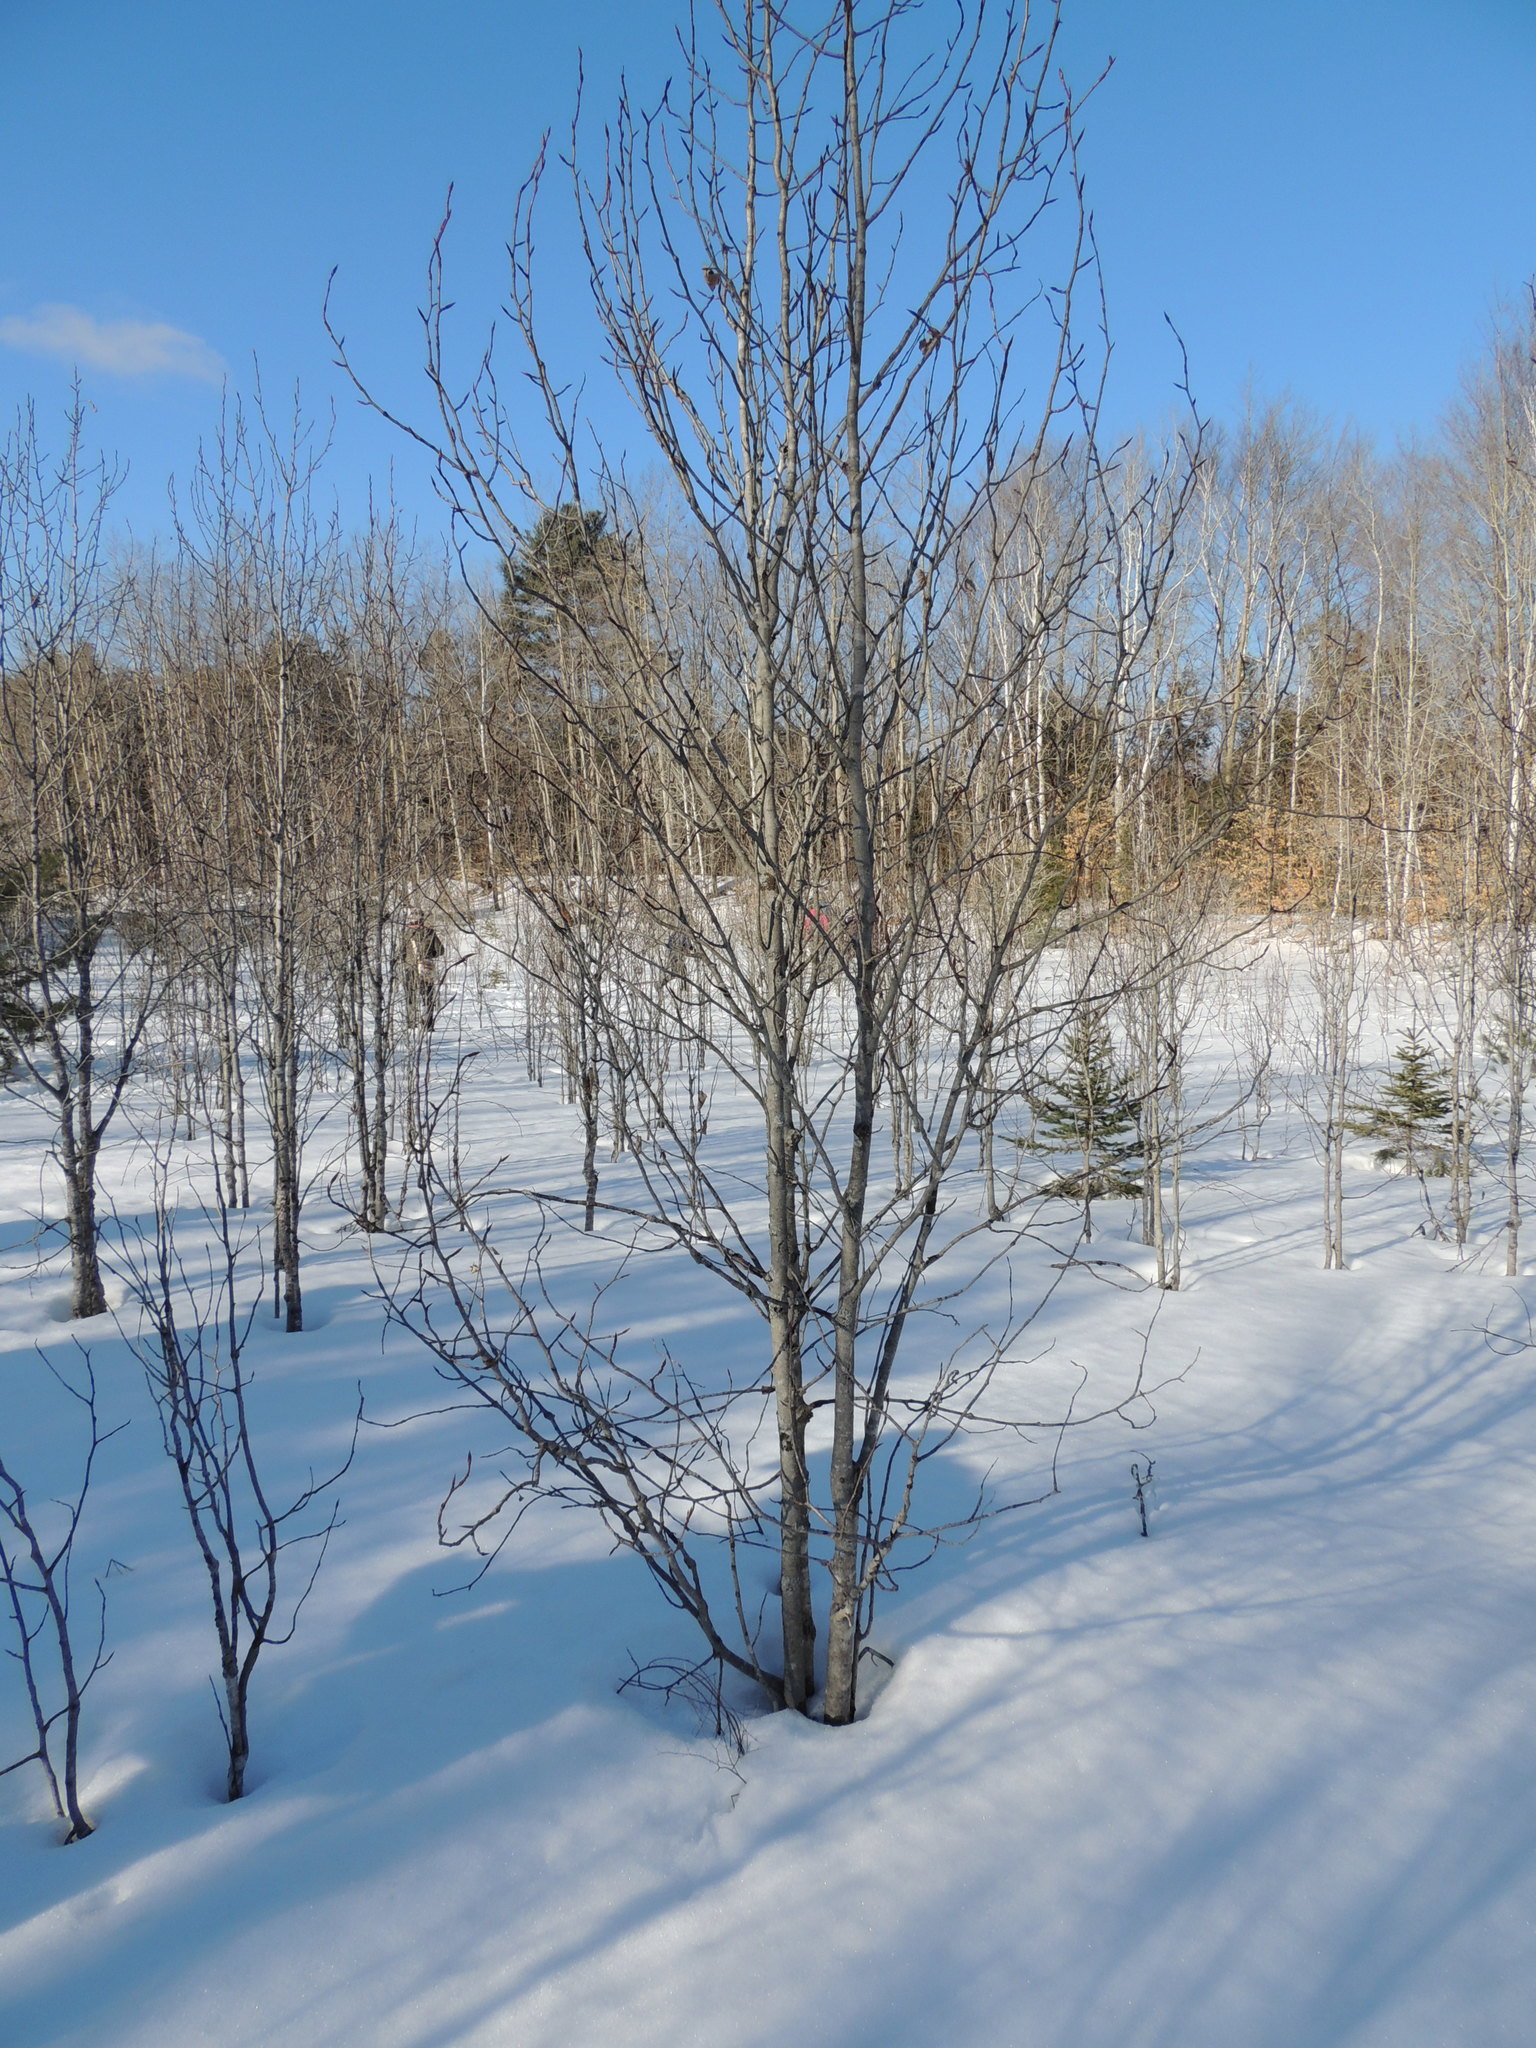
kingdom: Plantae
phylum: Tracheophyta
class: Magnoliopsida
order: Malpighiales
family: Salicaceae
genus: Populus
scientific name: Populus balsamifera
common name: Balsam poplar
